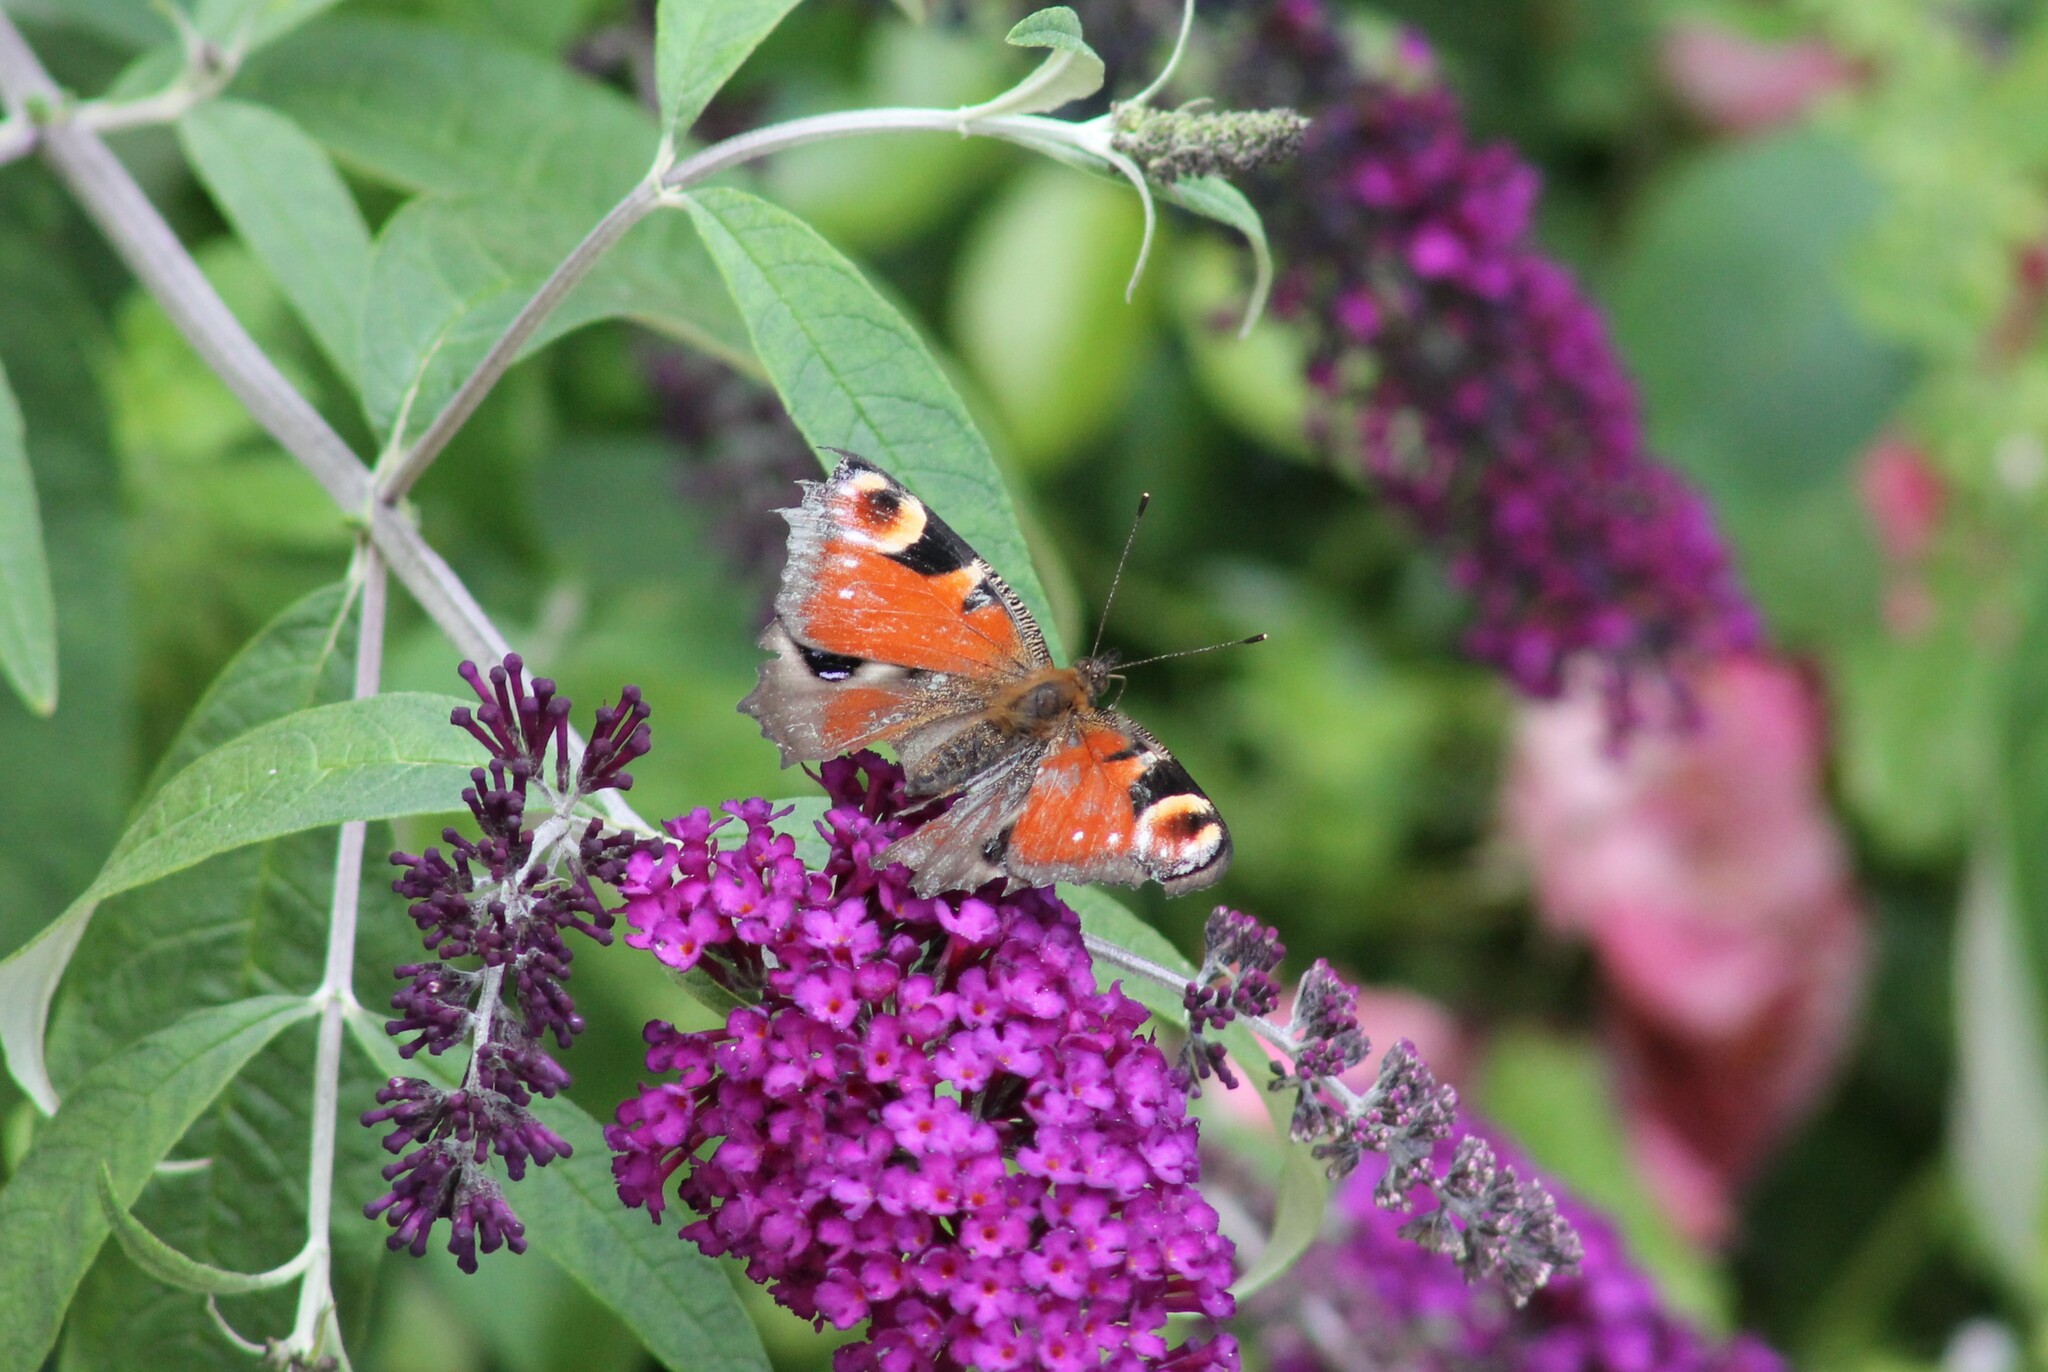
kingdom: Animalia
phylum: Arthropoda
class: Insecta
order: Lepidoptera
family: Nymphalidae
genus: Aglais
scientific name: Aglais io
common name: Peacock
